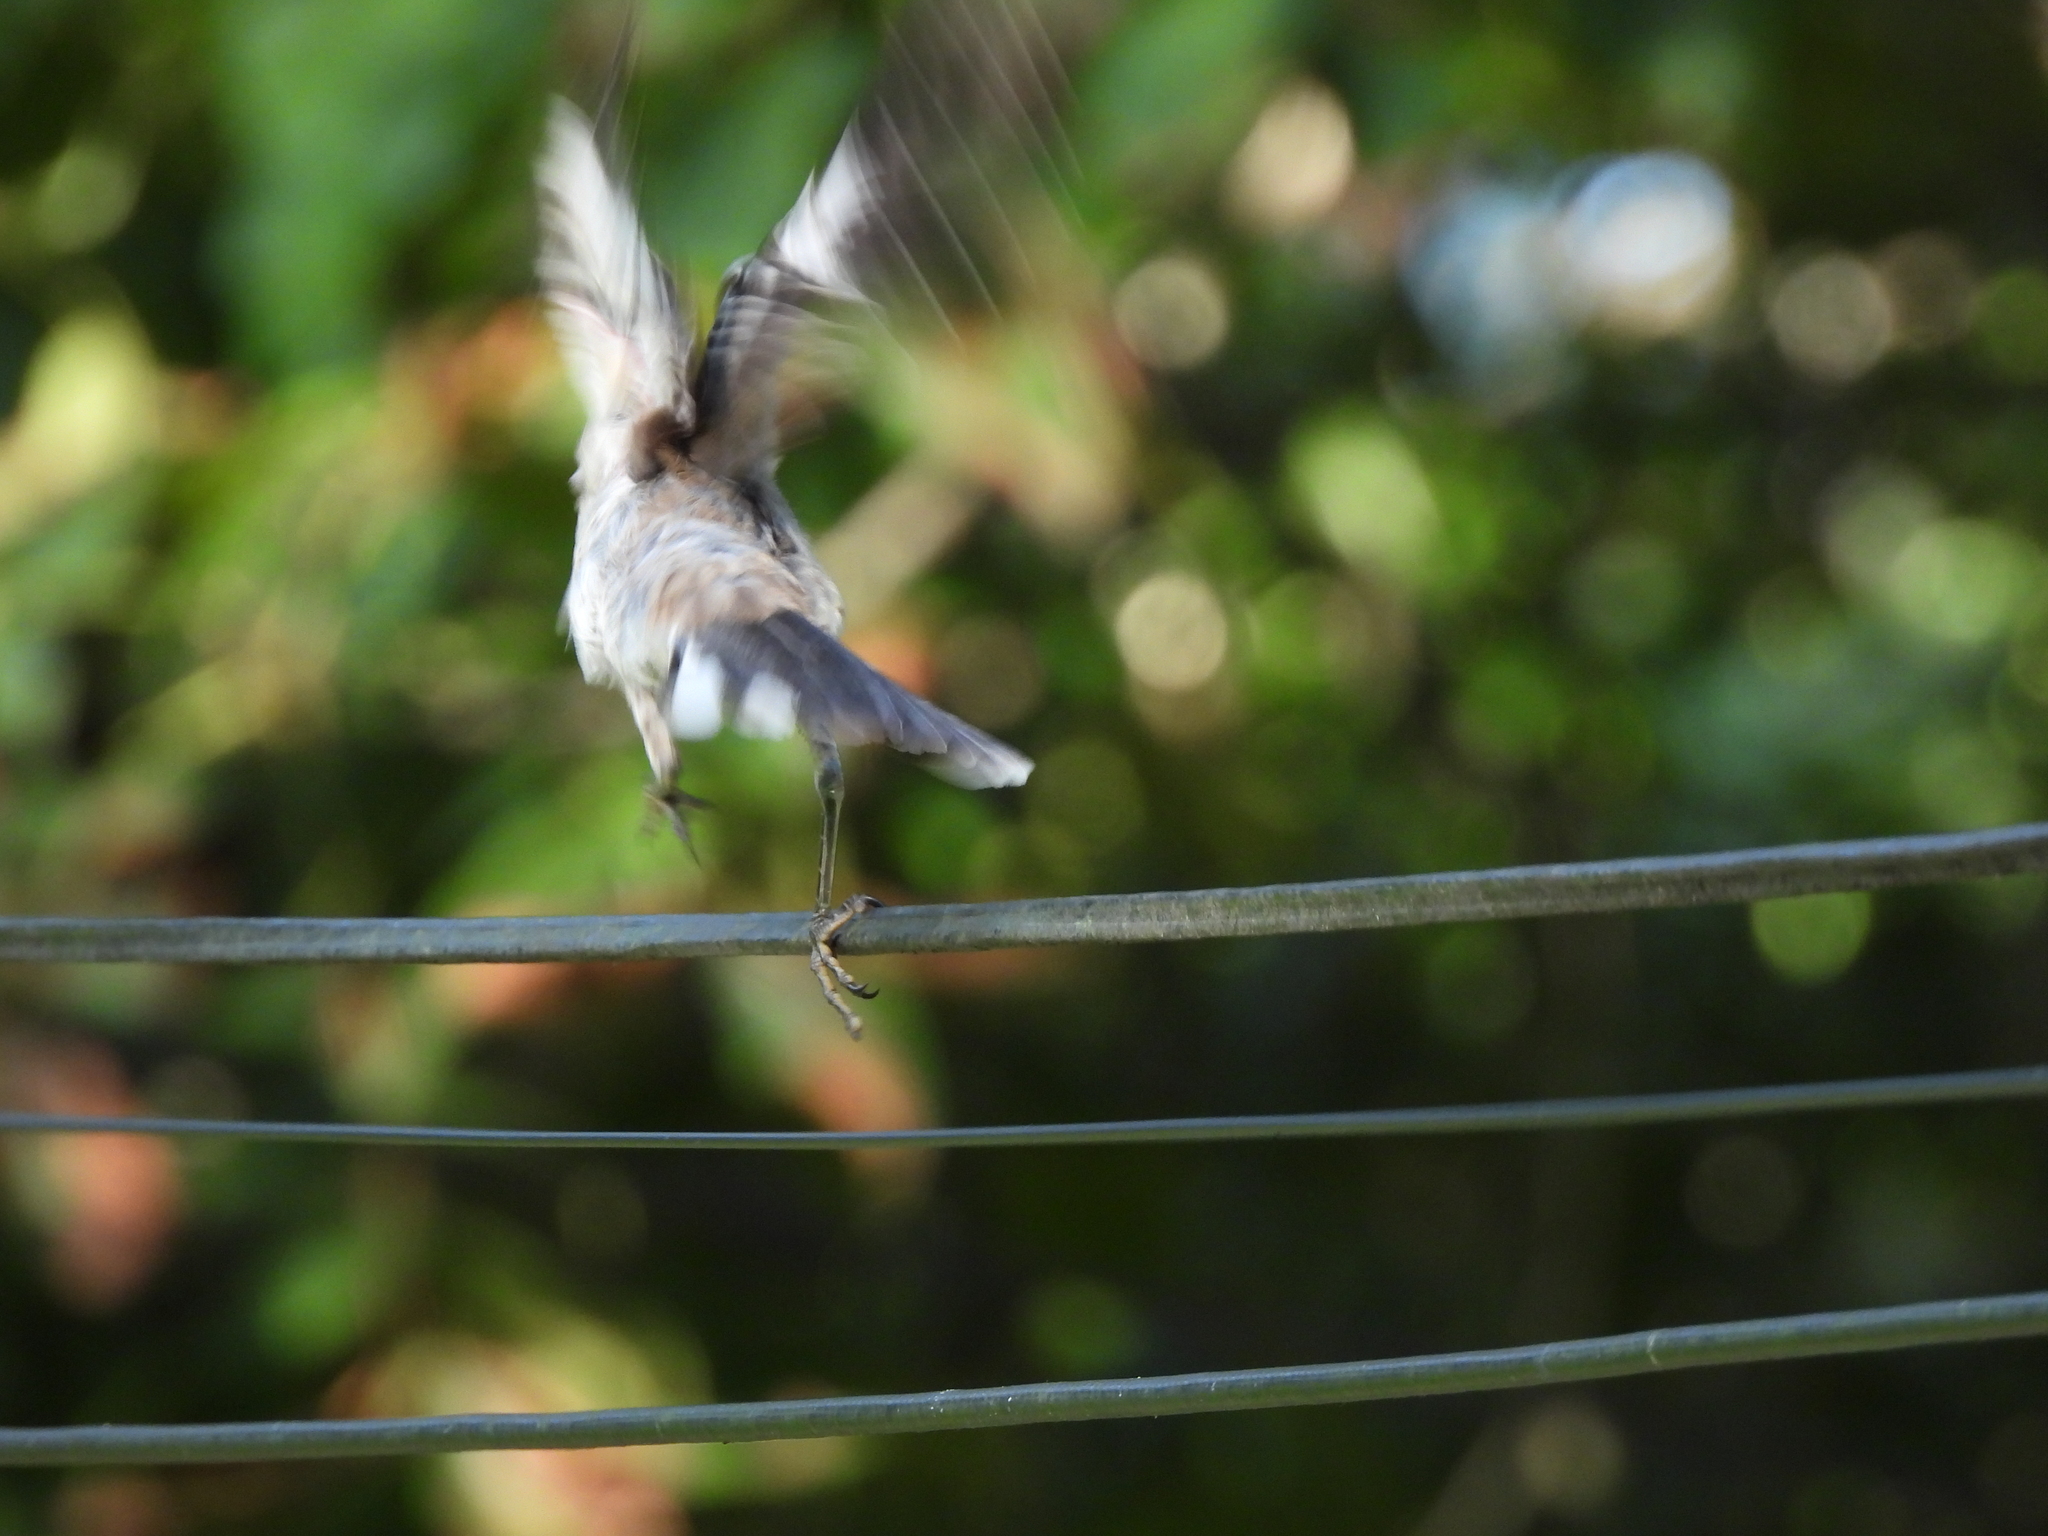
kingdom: Animalia
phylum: Chordata
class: Aves
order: Passeriformes
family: Mimidae
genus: Mimus
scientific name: Mimus polyglottos
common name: Northern mockingbird
